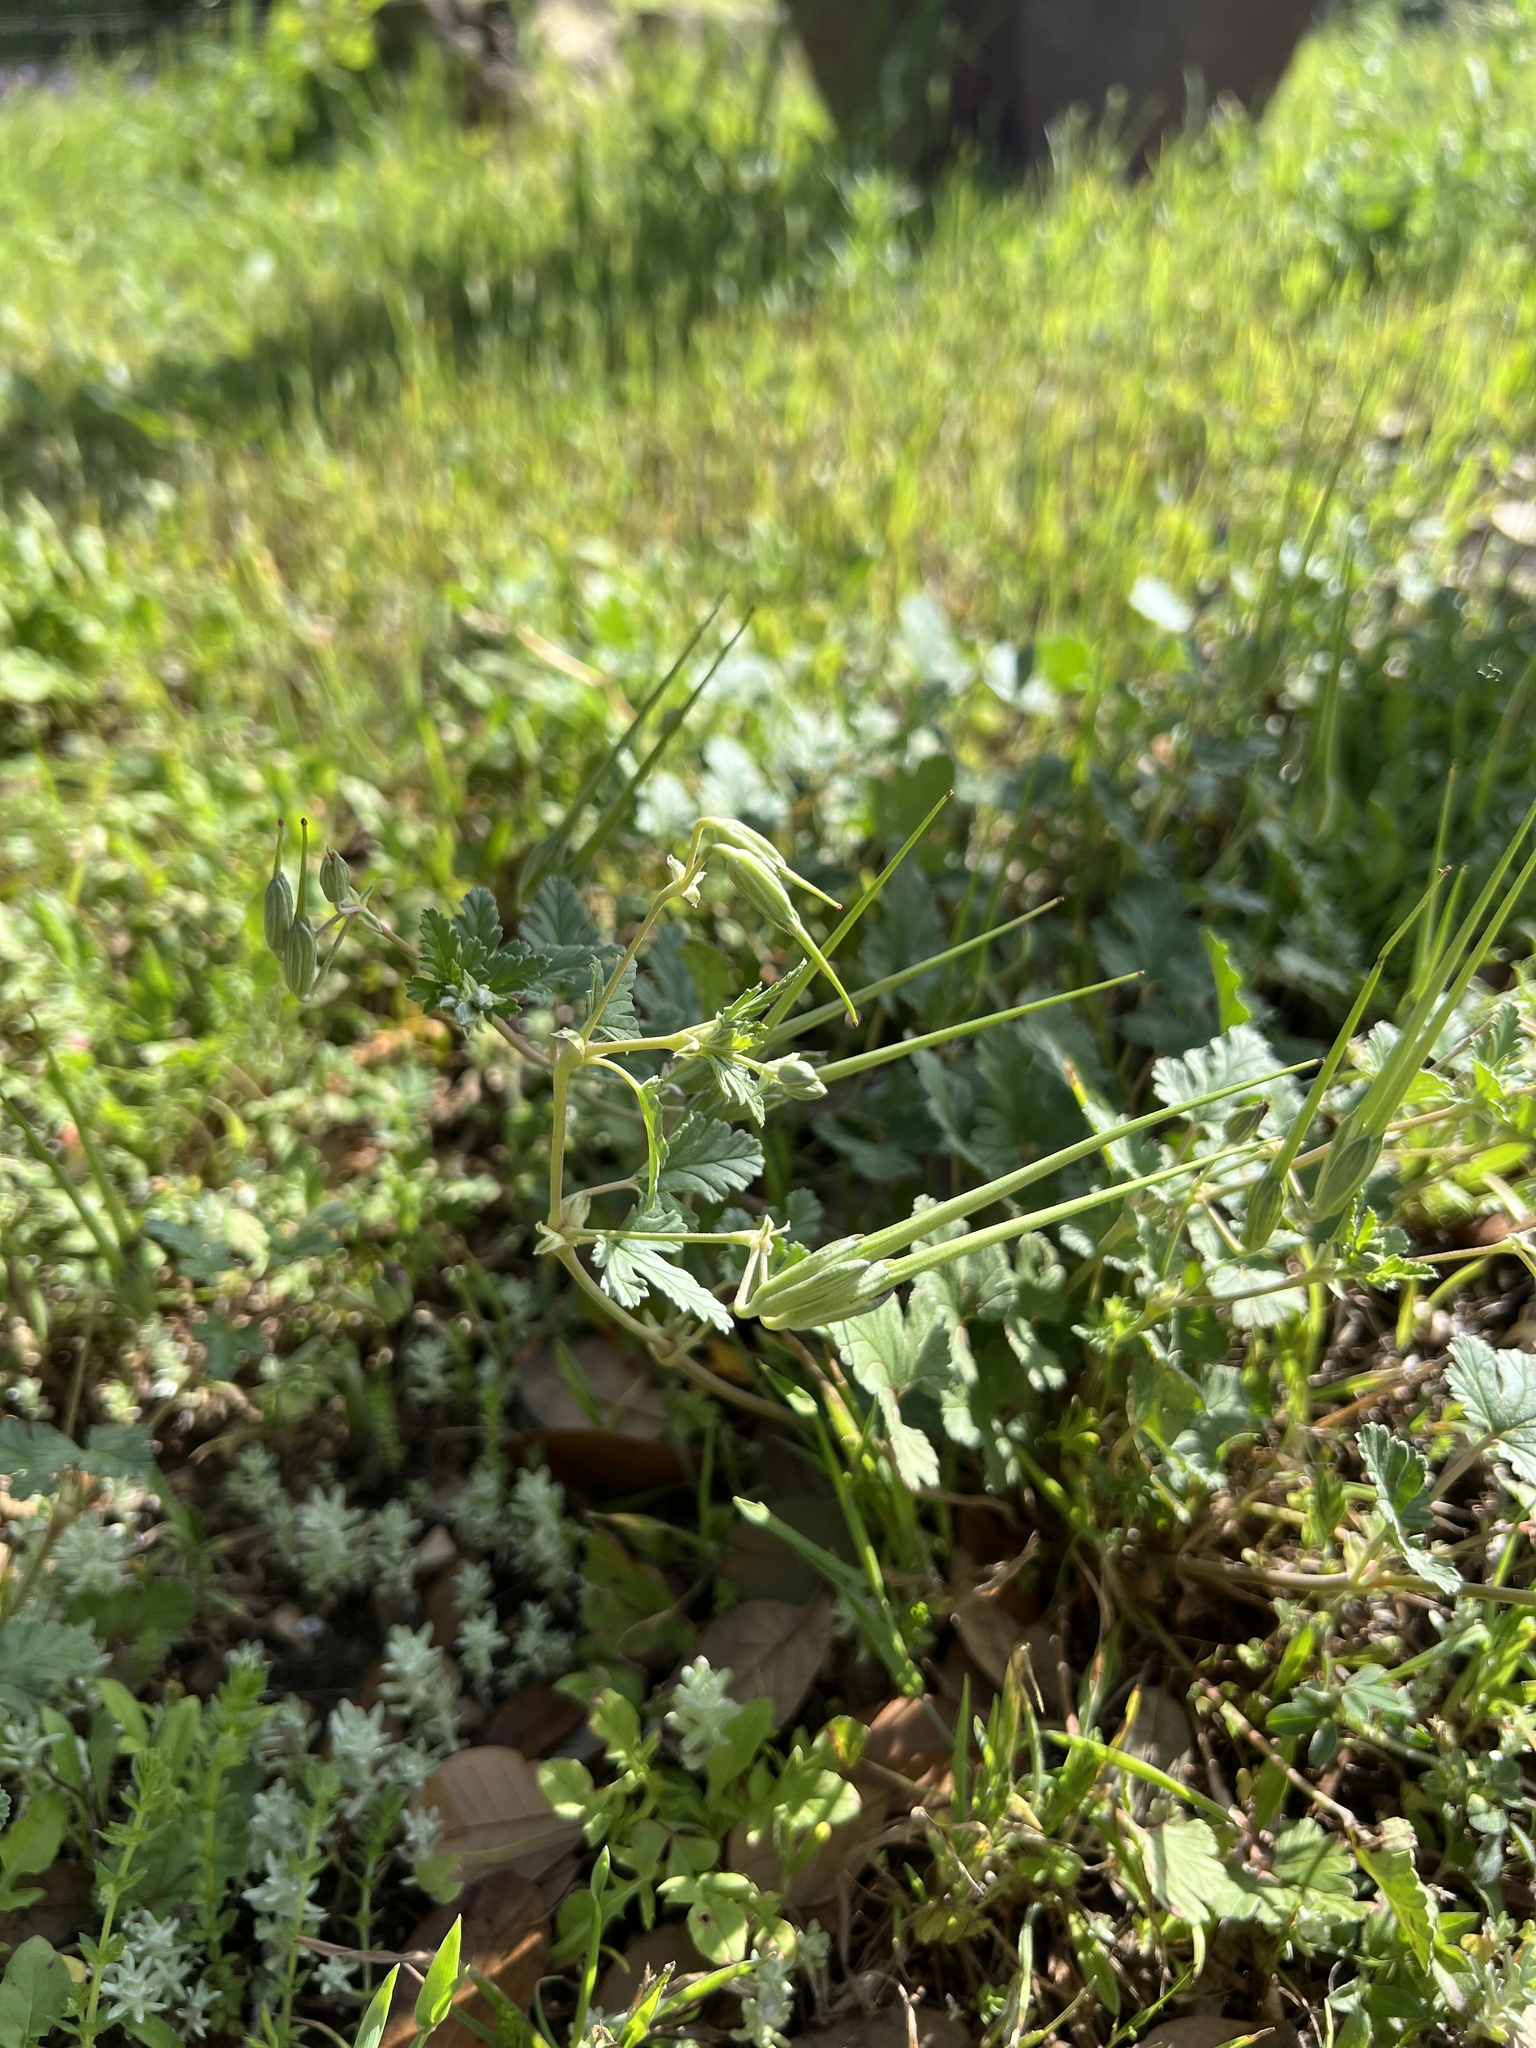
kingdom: Plantae
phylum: Tracheophyta
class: Magnoliopsida
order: Geraniales
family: Geraniaceae
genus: Erodium
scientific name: Erodium texanum
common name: Texas stork's-bill
